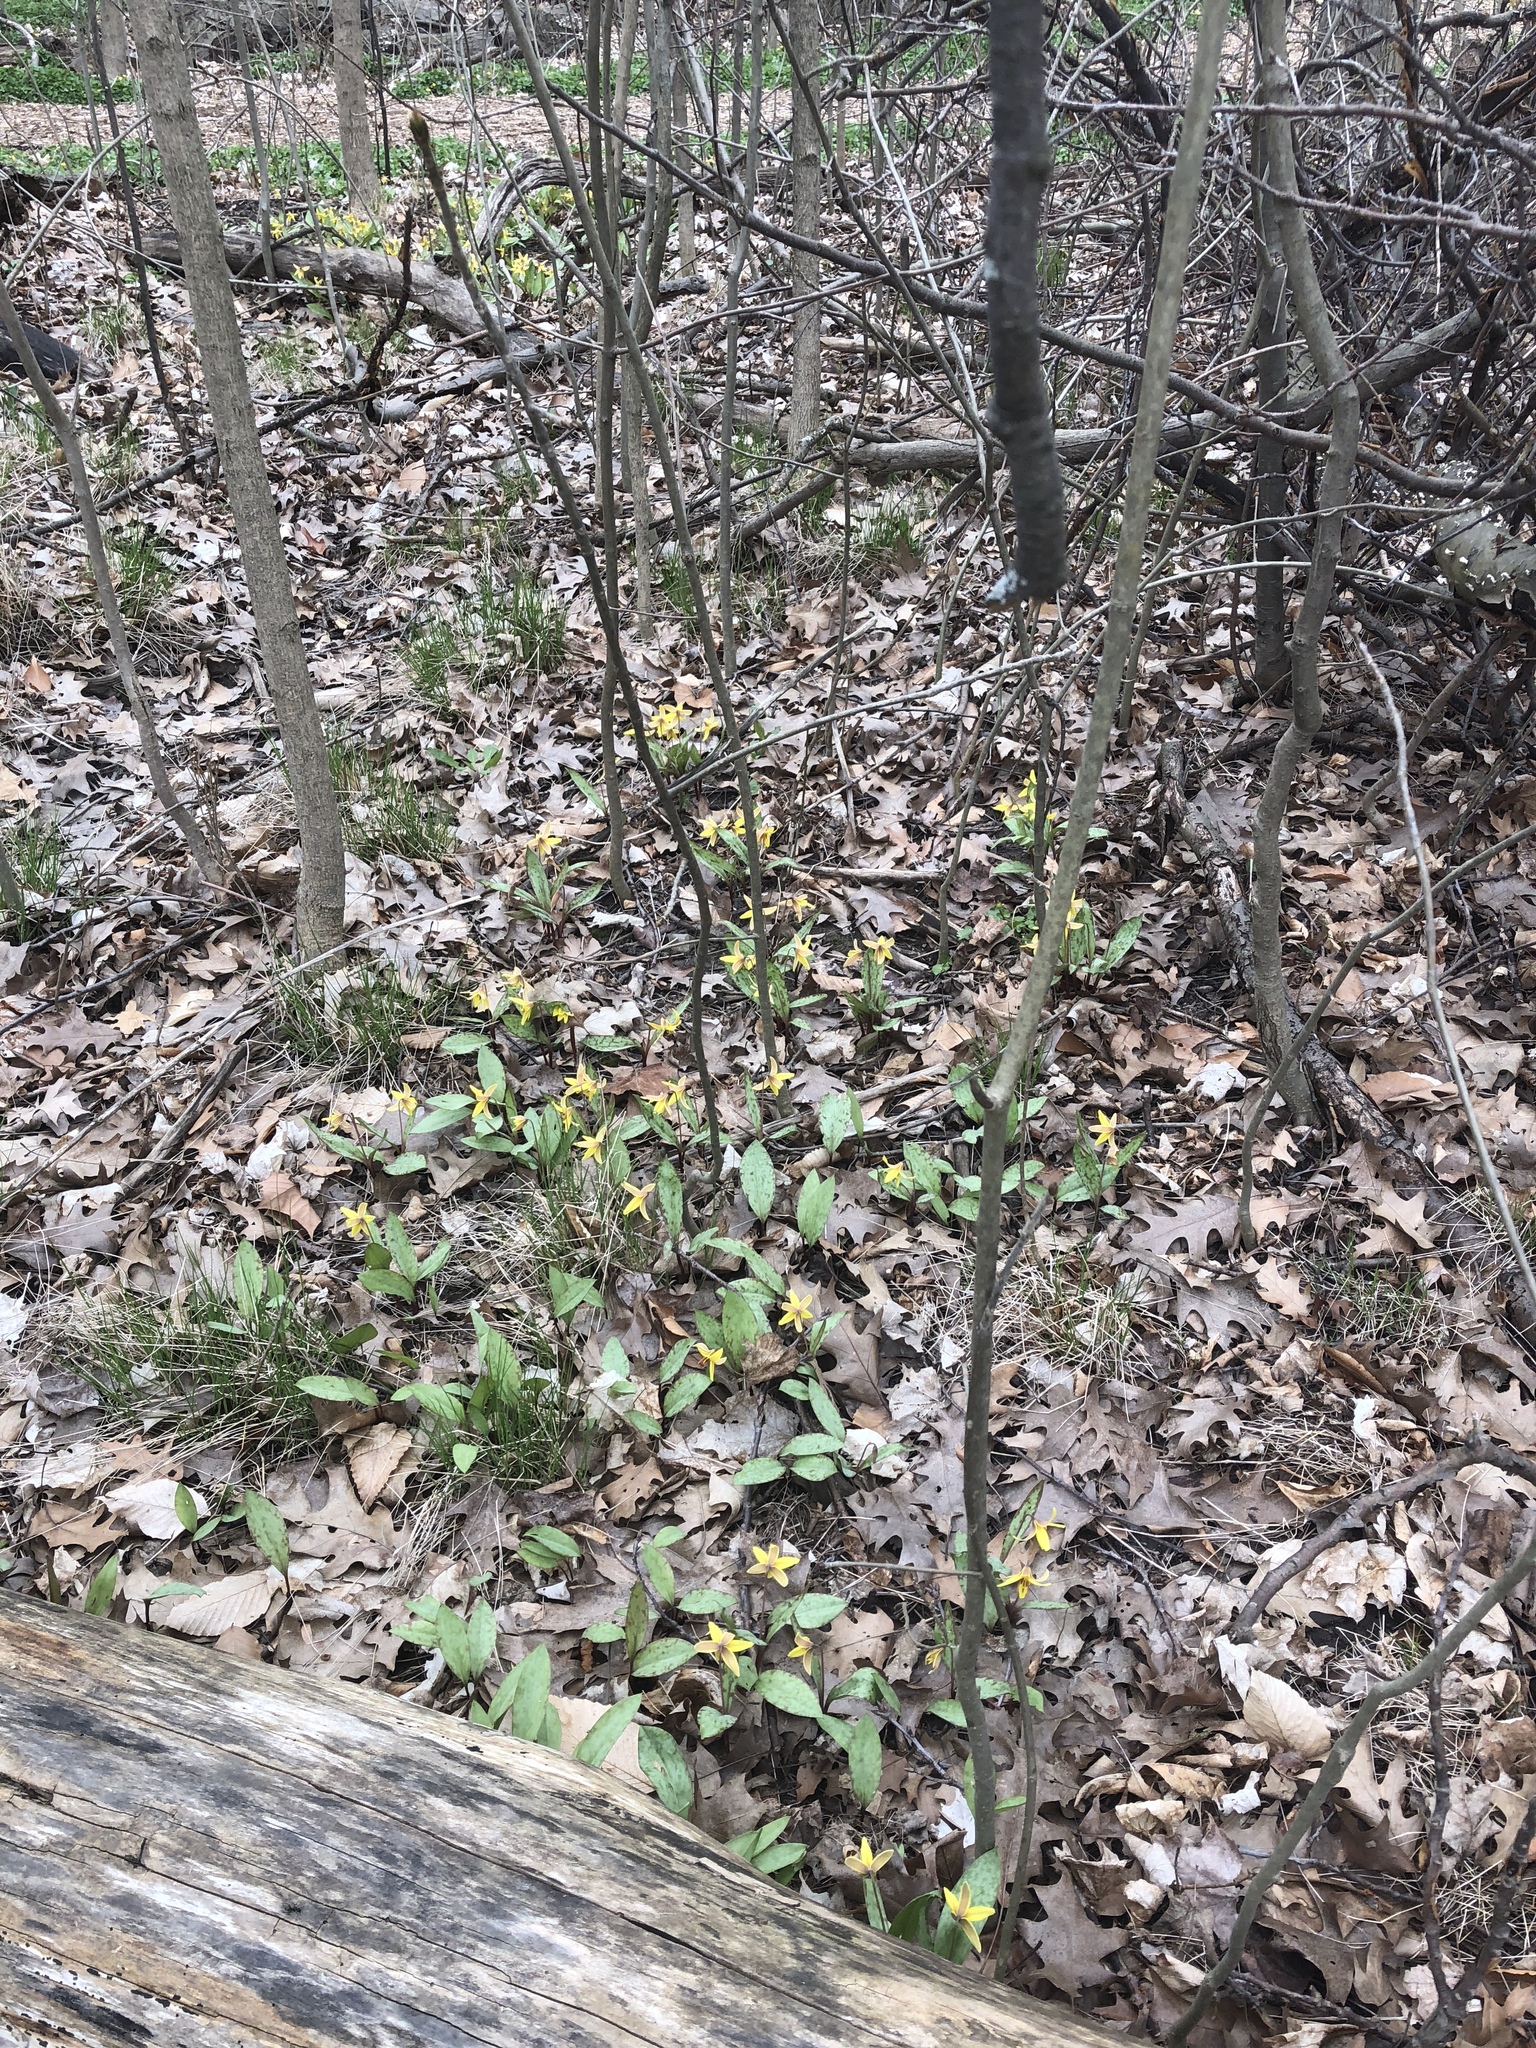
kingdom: Plantae
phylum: Tracheophyta
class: Liliopsida
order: Liliales
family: Liliaceae
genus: Erythronium
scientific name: Erythronium americanum
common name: Yellow adder's-tongue
